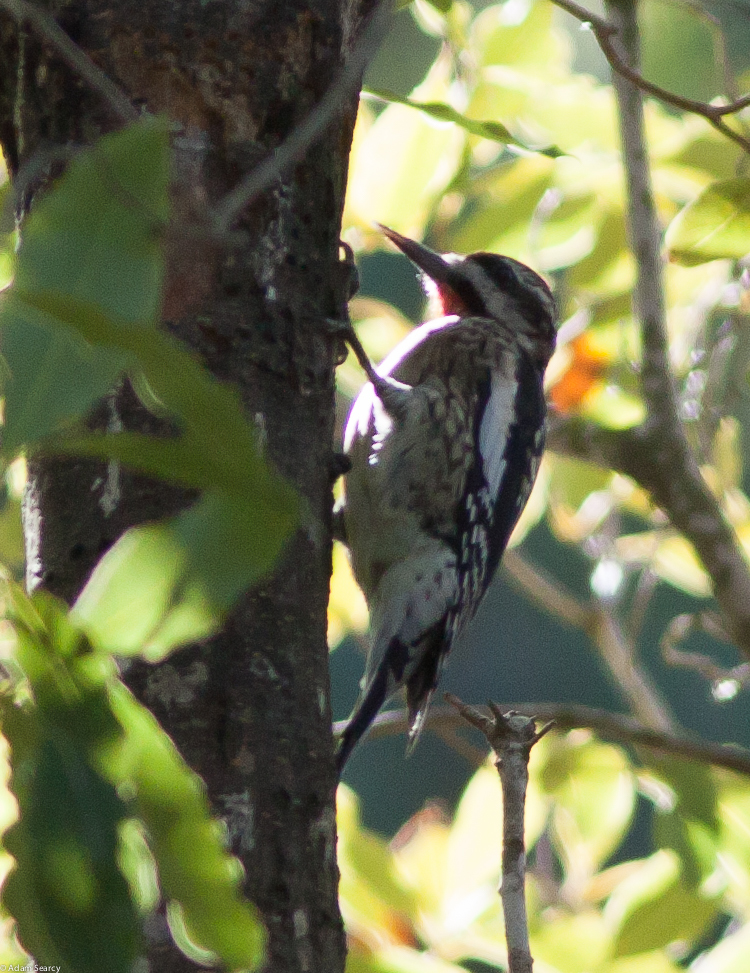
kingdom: Animalia
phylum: Chordata
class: Aves
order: Piciformes
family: Picidae
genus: Sphyrapicus
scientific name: Sphyrapicus varius
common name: Yellow-bellied sapsucker
